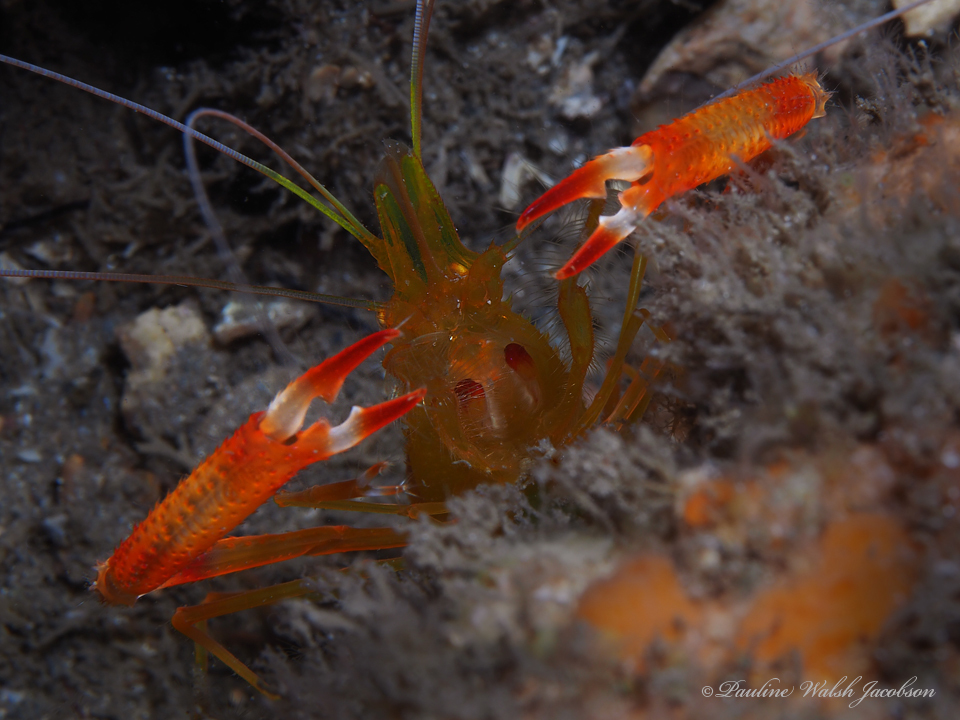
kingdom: Animalia
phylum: Arthropoda
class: Malacostraca
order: Decapoda
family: Stenopodidae
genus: Stenopus
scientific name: Stenopus scutellatus
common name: Golden coral shrimp
